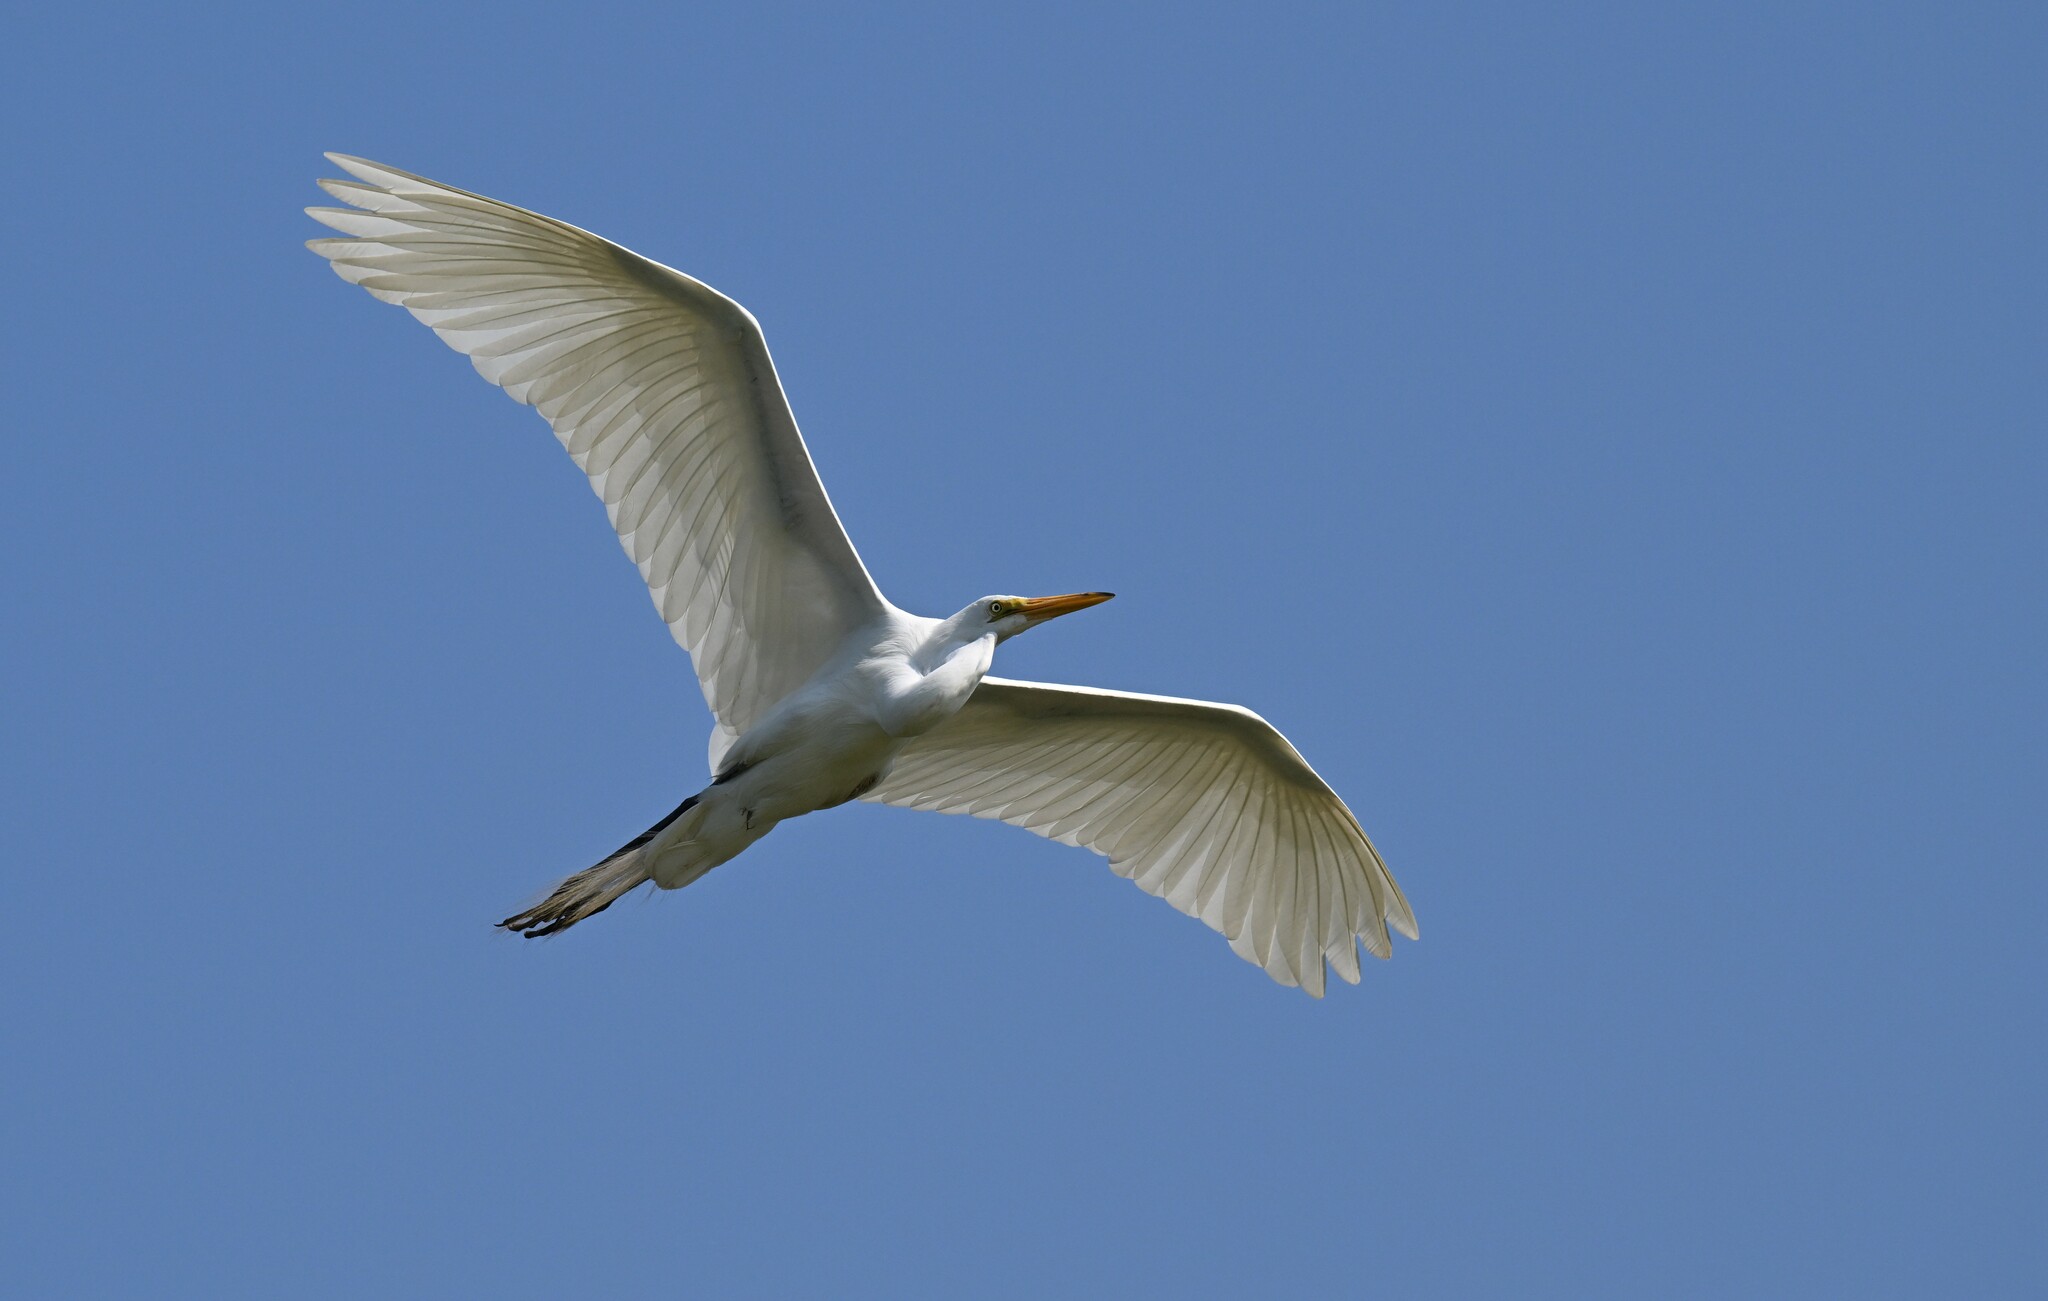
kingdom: Animalia
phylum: Chordata
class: Aves
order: Pelecaniformes
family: Ardeidae
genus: Ardea
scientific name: Ardea alba
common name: Great egret
